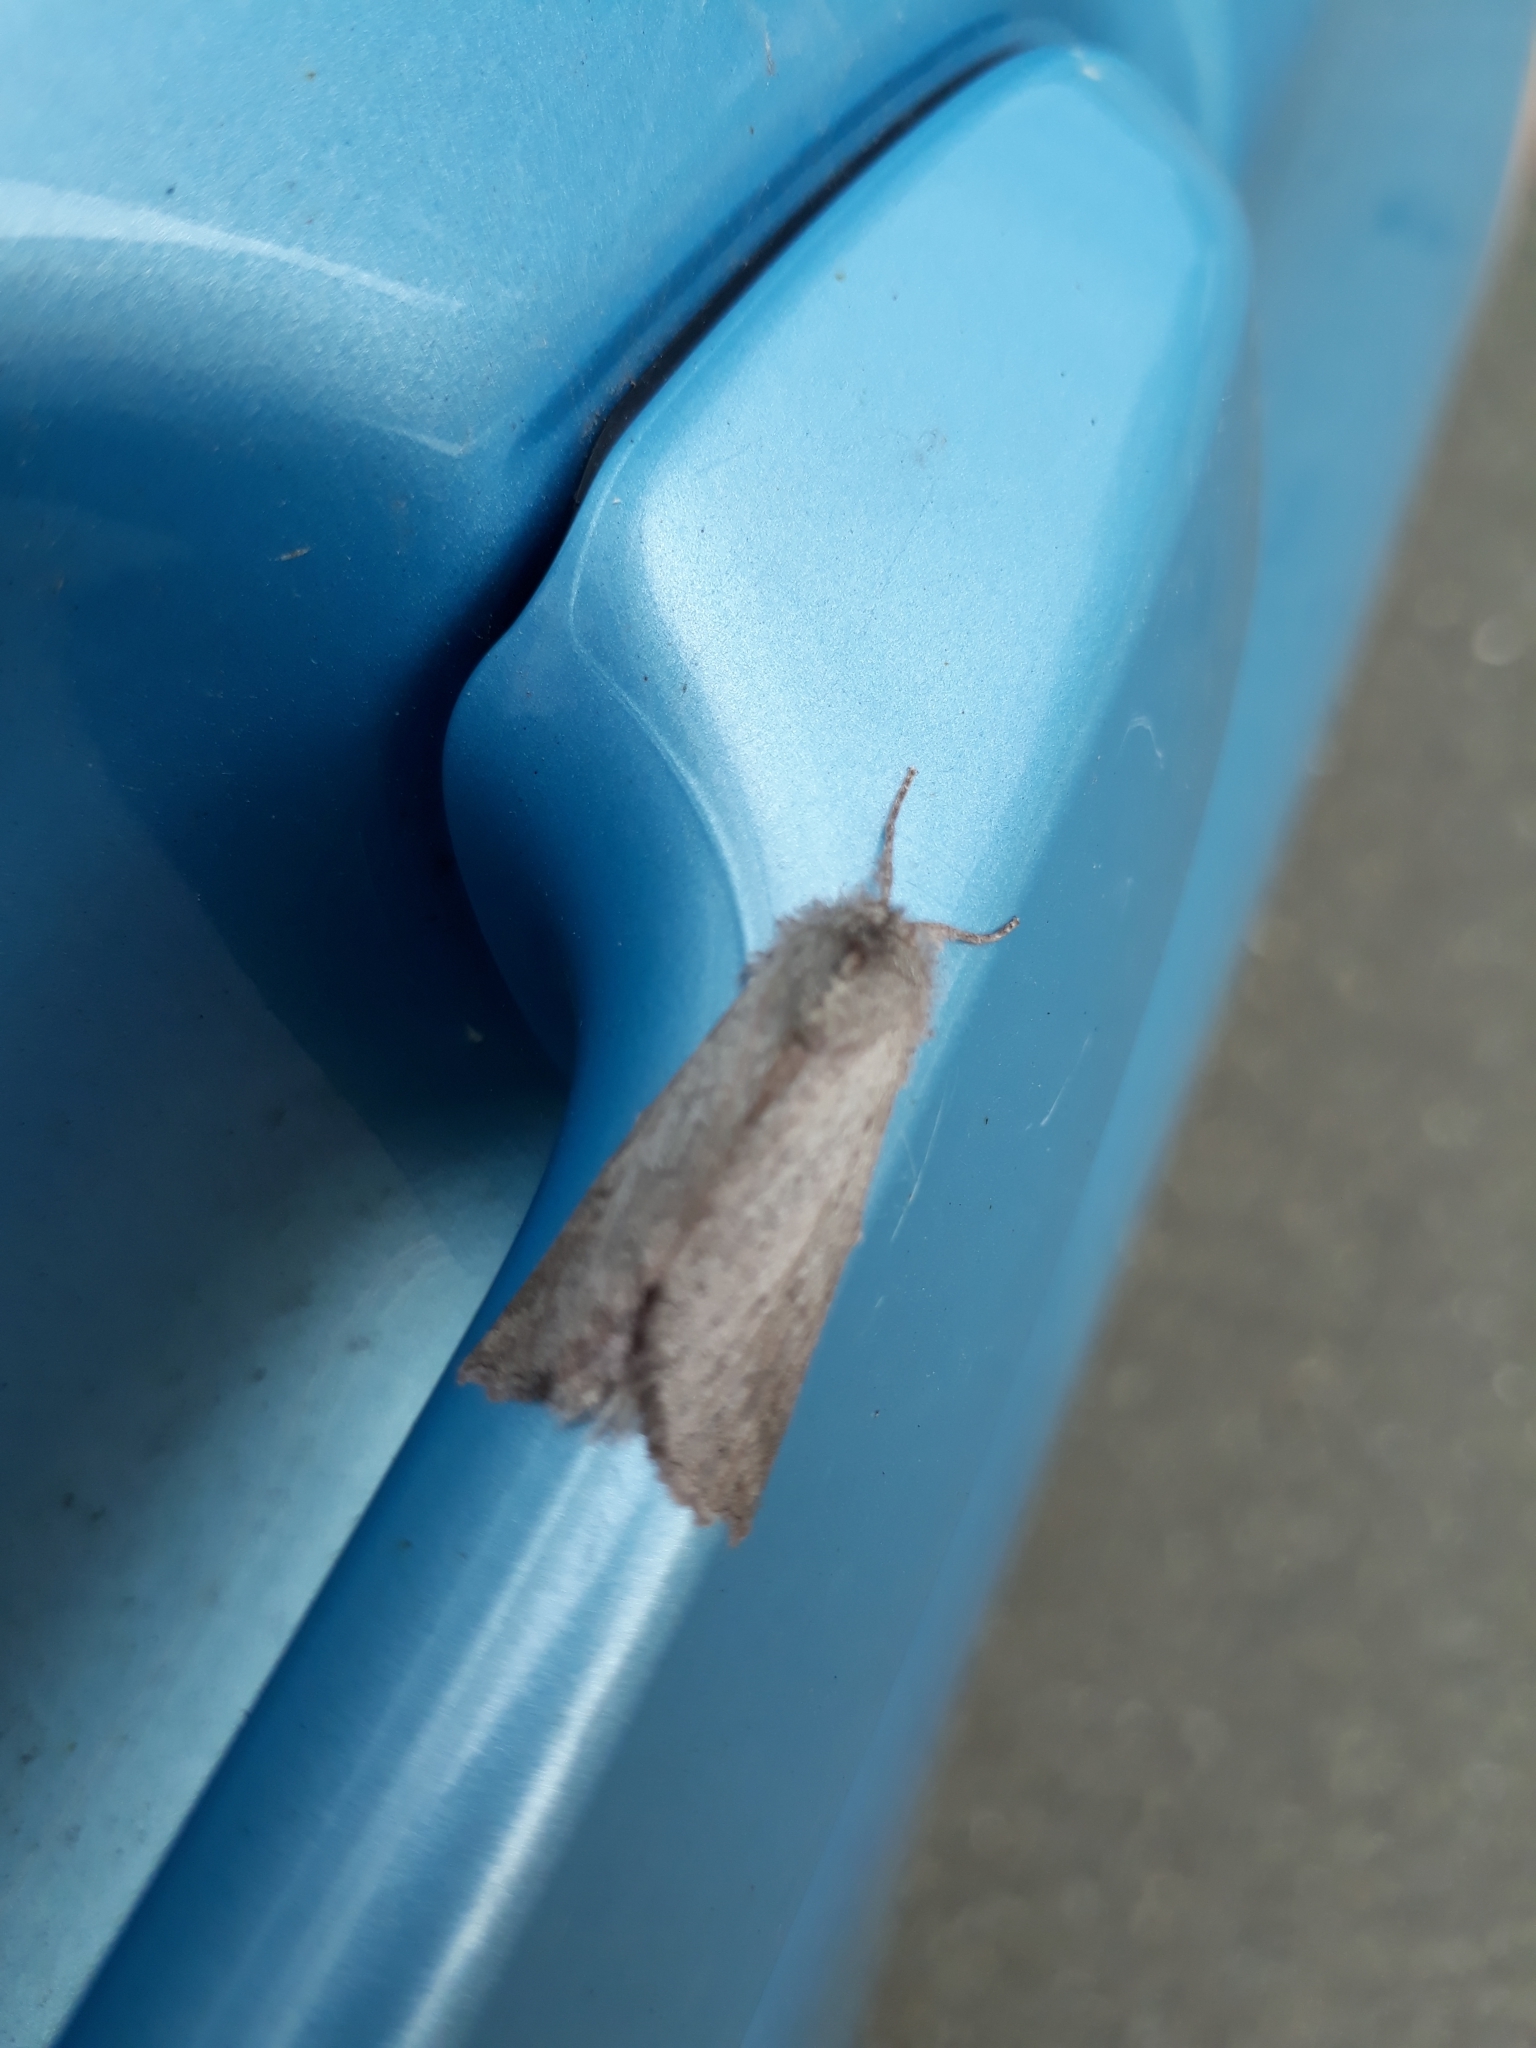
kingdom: Animalia
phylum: Arthropoda
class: Insecta
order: Lepidoptera
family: Geometridae
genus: Declana
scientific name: Declana leptomera
